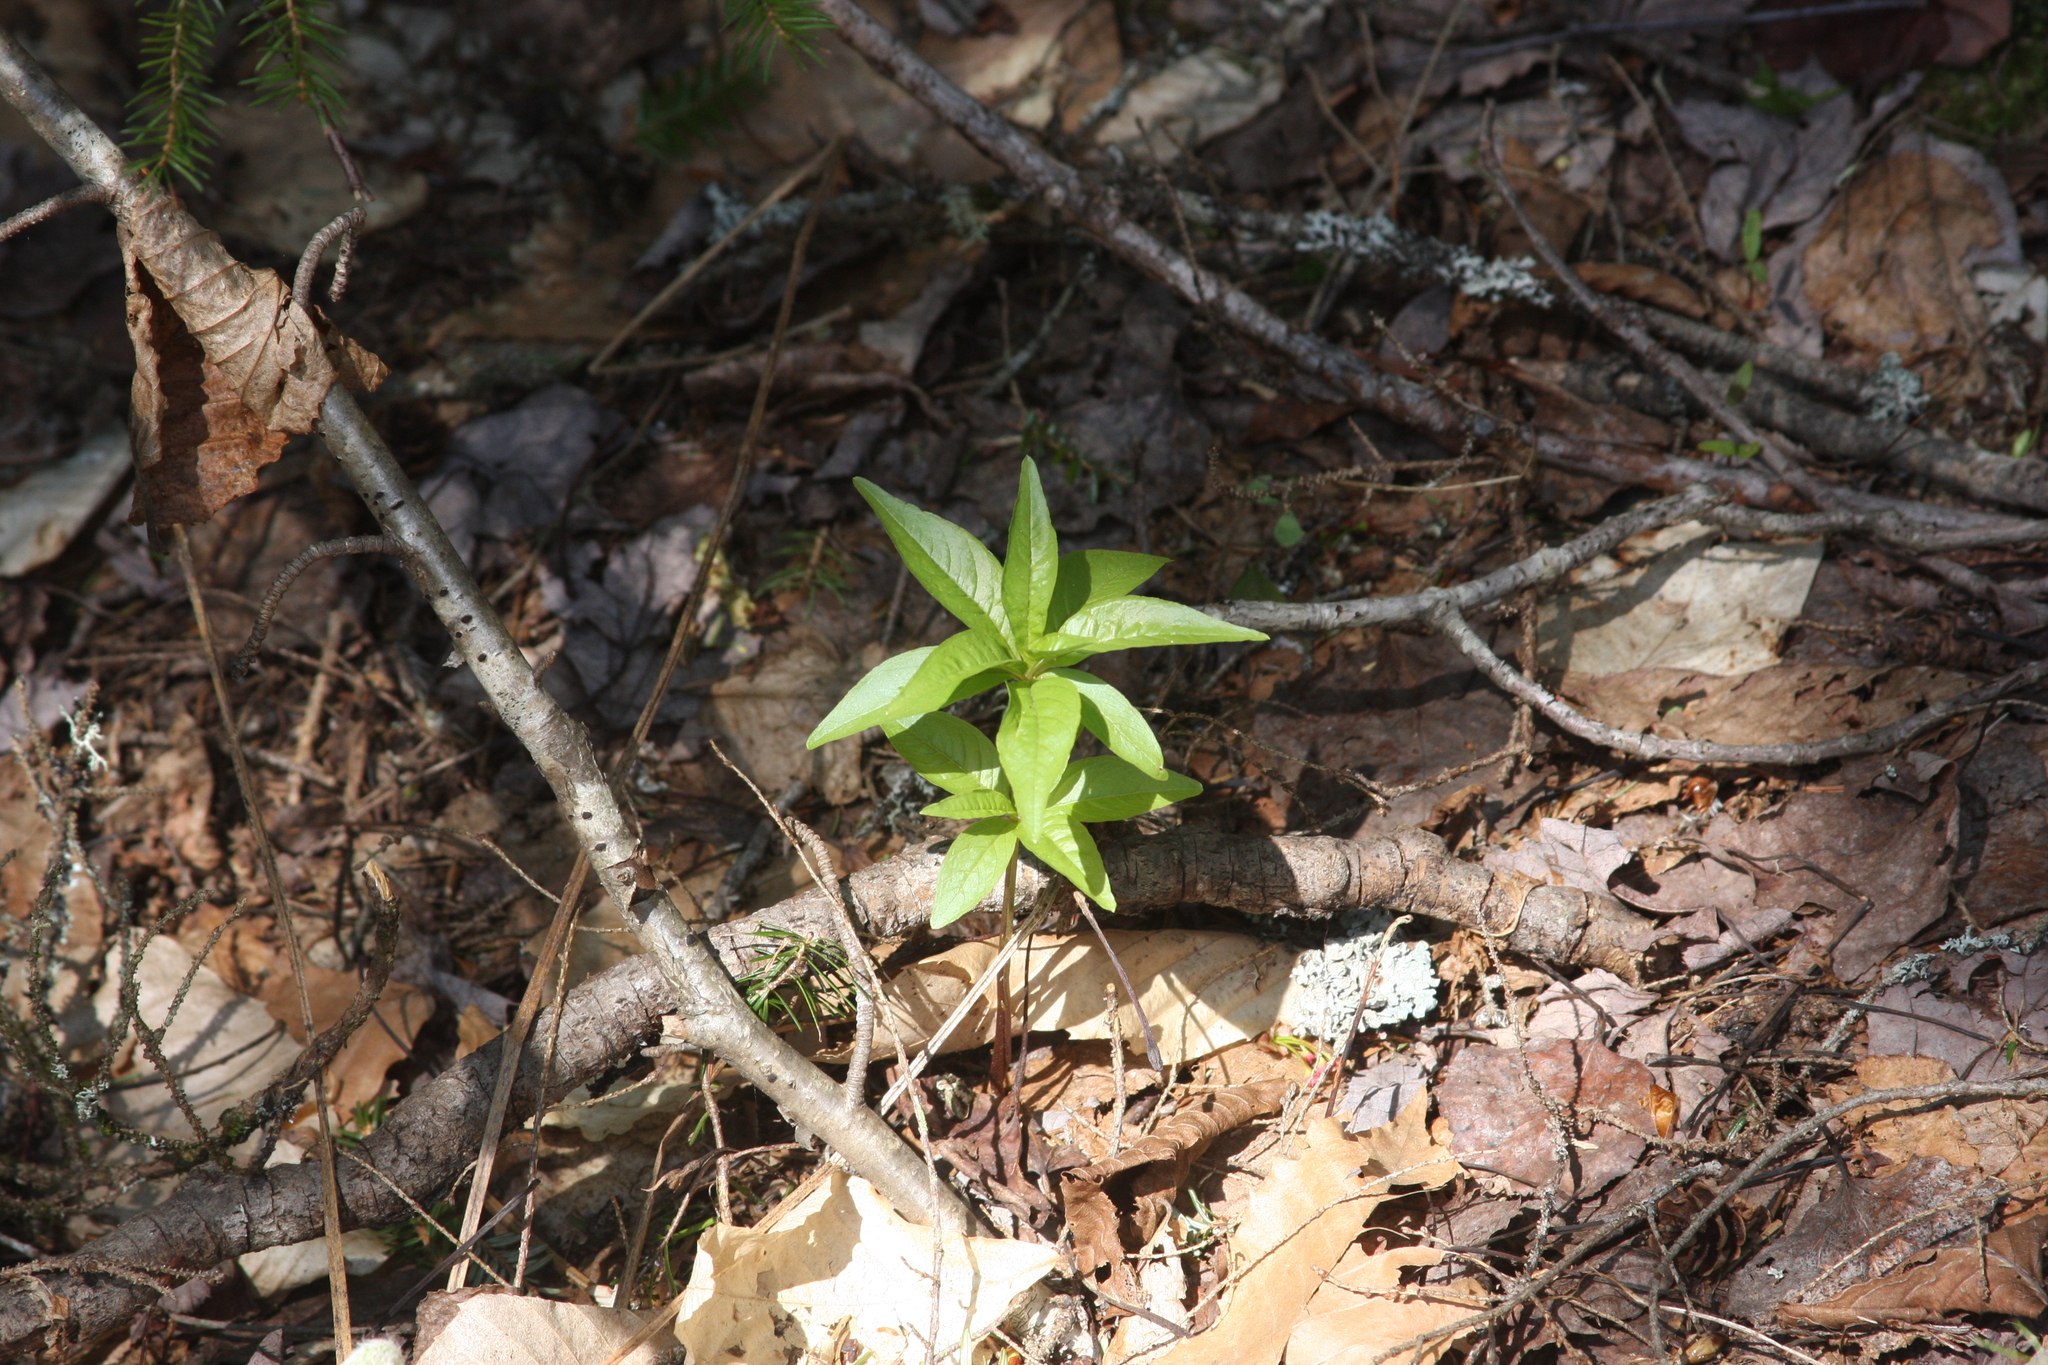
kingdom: Plantae
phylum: Tracheophyta
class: Magnoliopsida
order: Ericales
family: Primulaceae
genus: Lysimachia
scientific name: Lysimachia borealis
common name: American starflower
